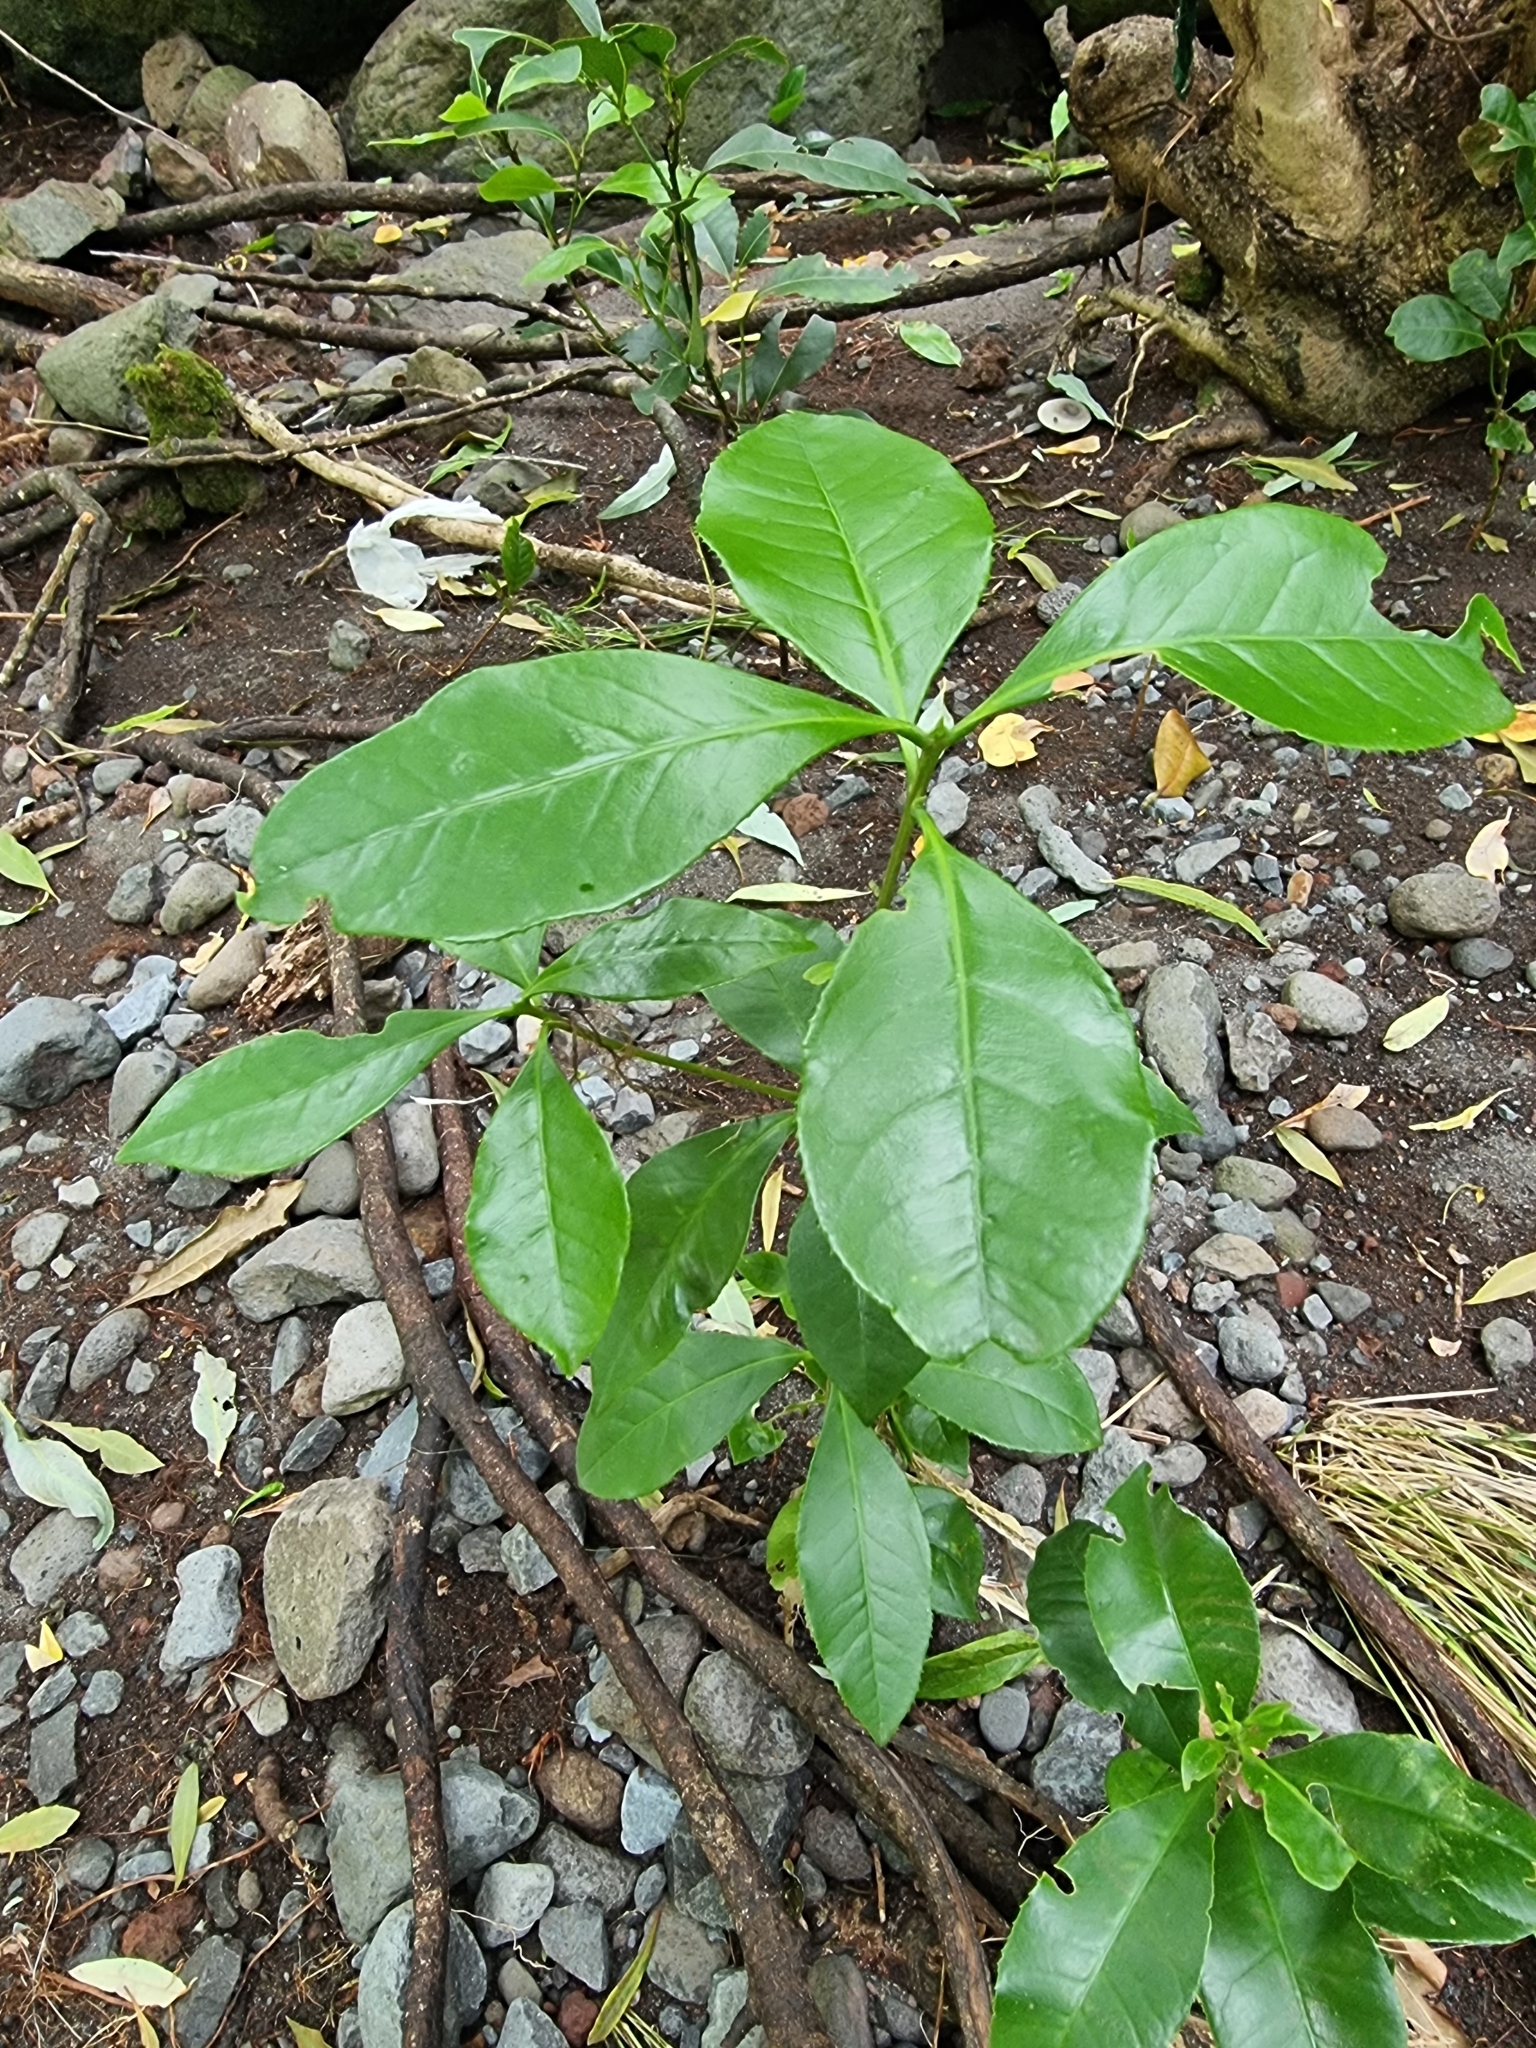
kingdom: Plantae
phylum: Tracheophyta
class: Magnoliopsida
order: Lamiales
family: Oleaceae
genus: Picconia
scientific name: Picconia excelsa
